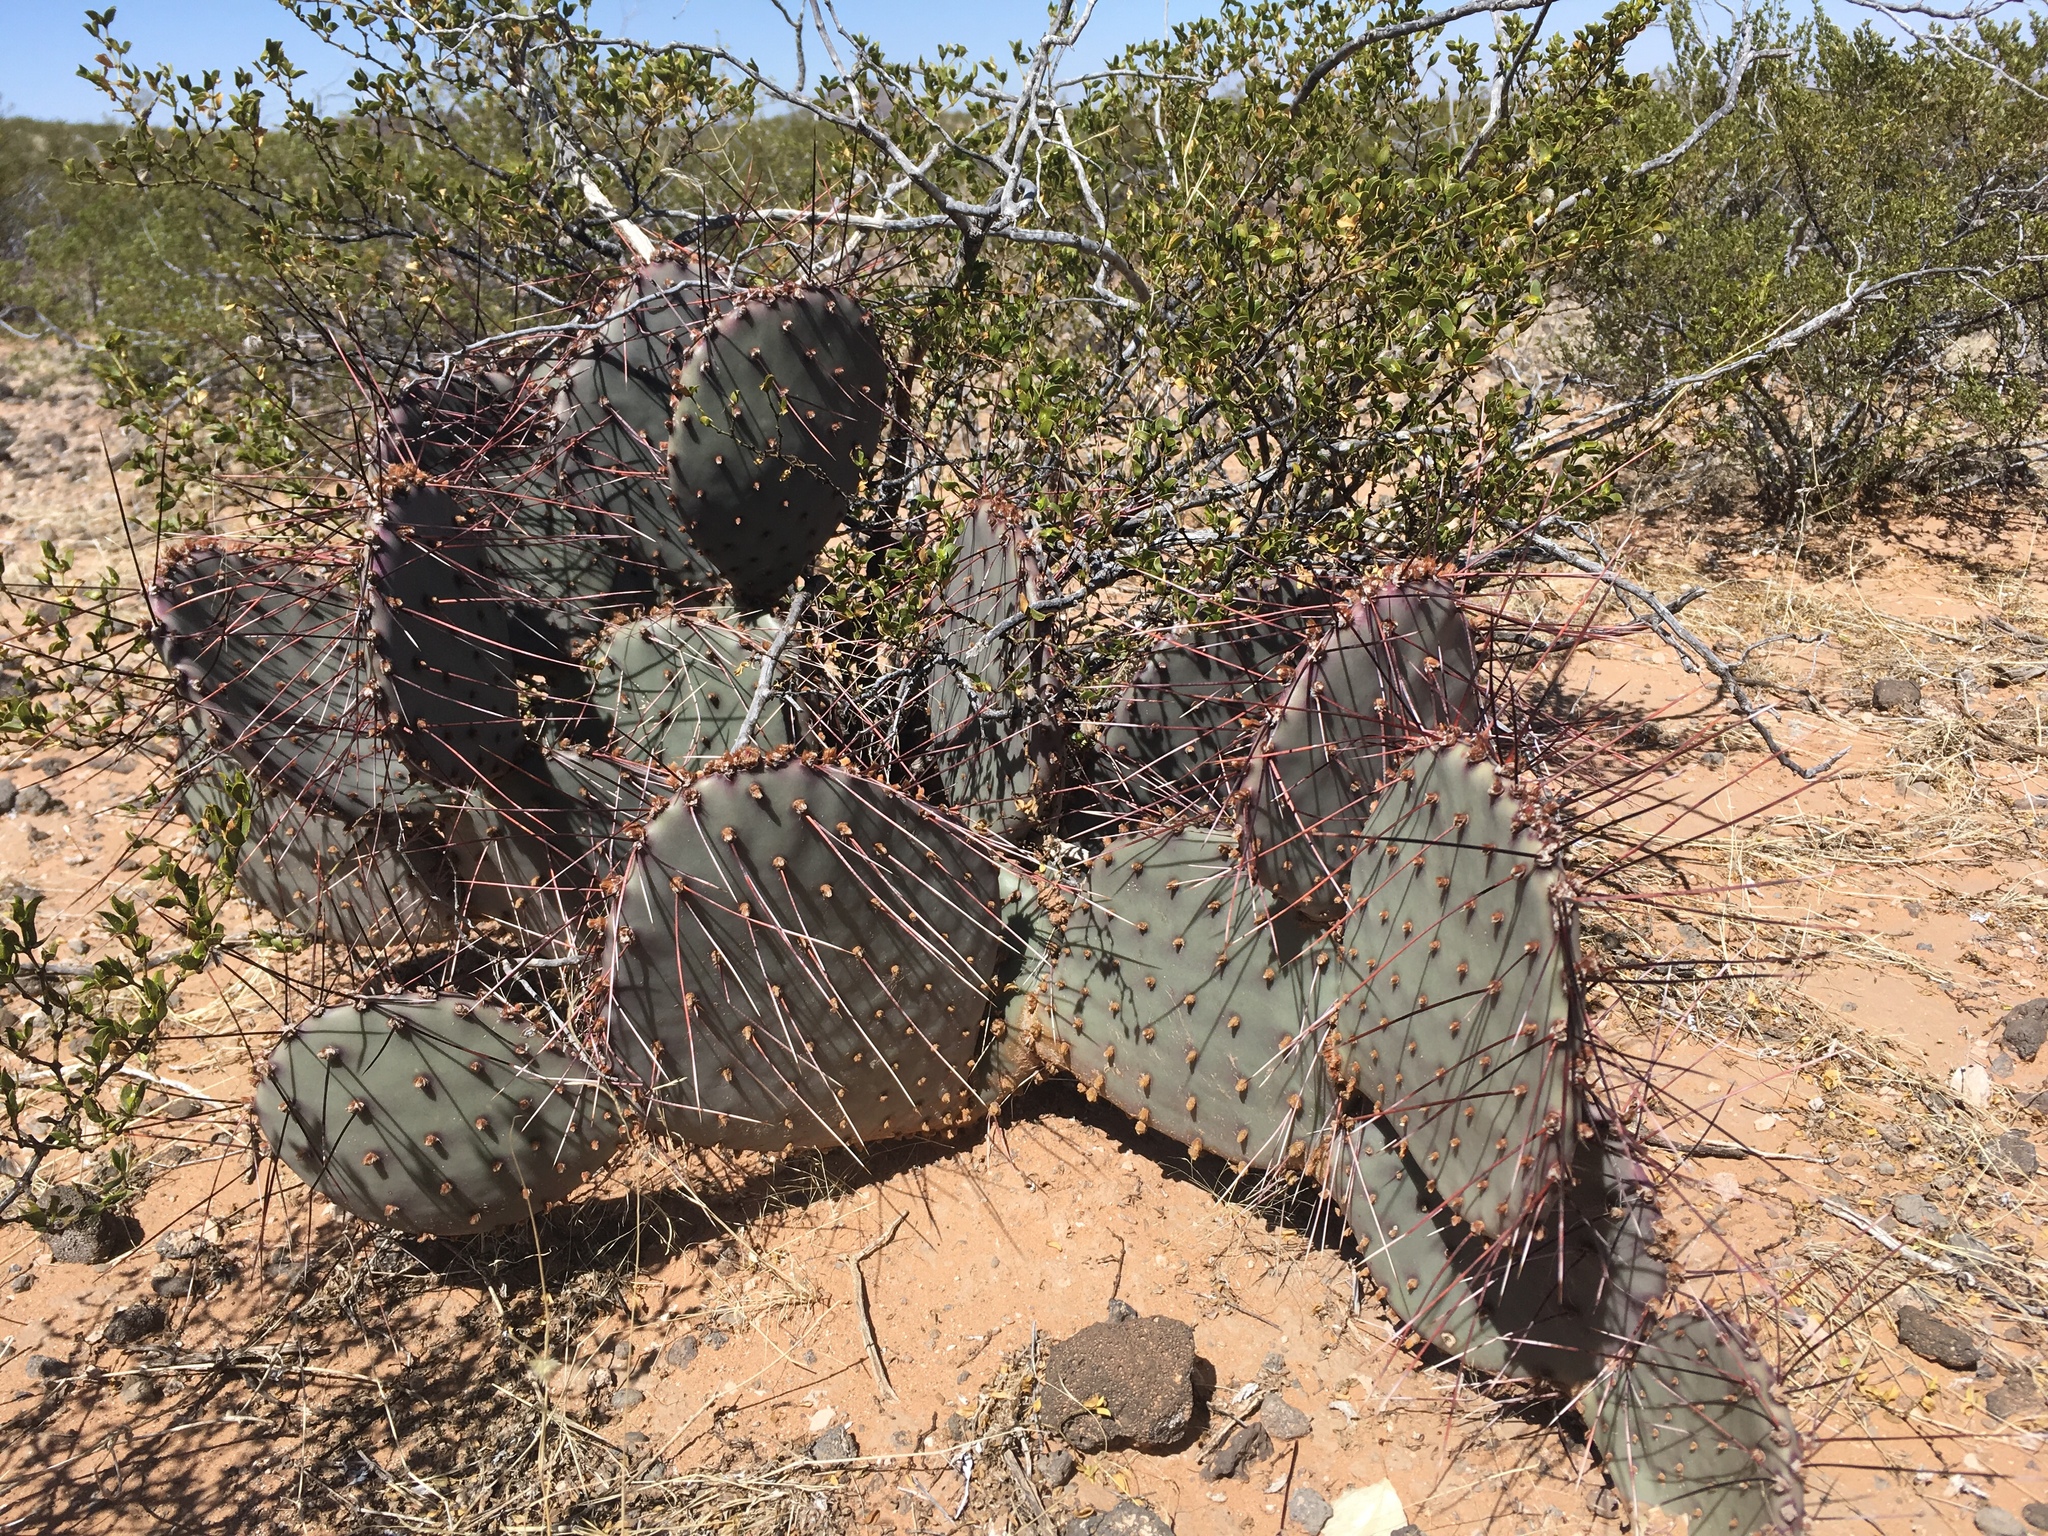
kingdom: Plantae
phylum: Tracheophyta
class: Magnoliopsida
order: Caryophyllales
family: Cactaceae
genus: Opuntia
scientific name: Opuntia macrocentra
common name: Purple prickly-pear
